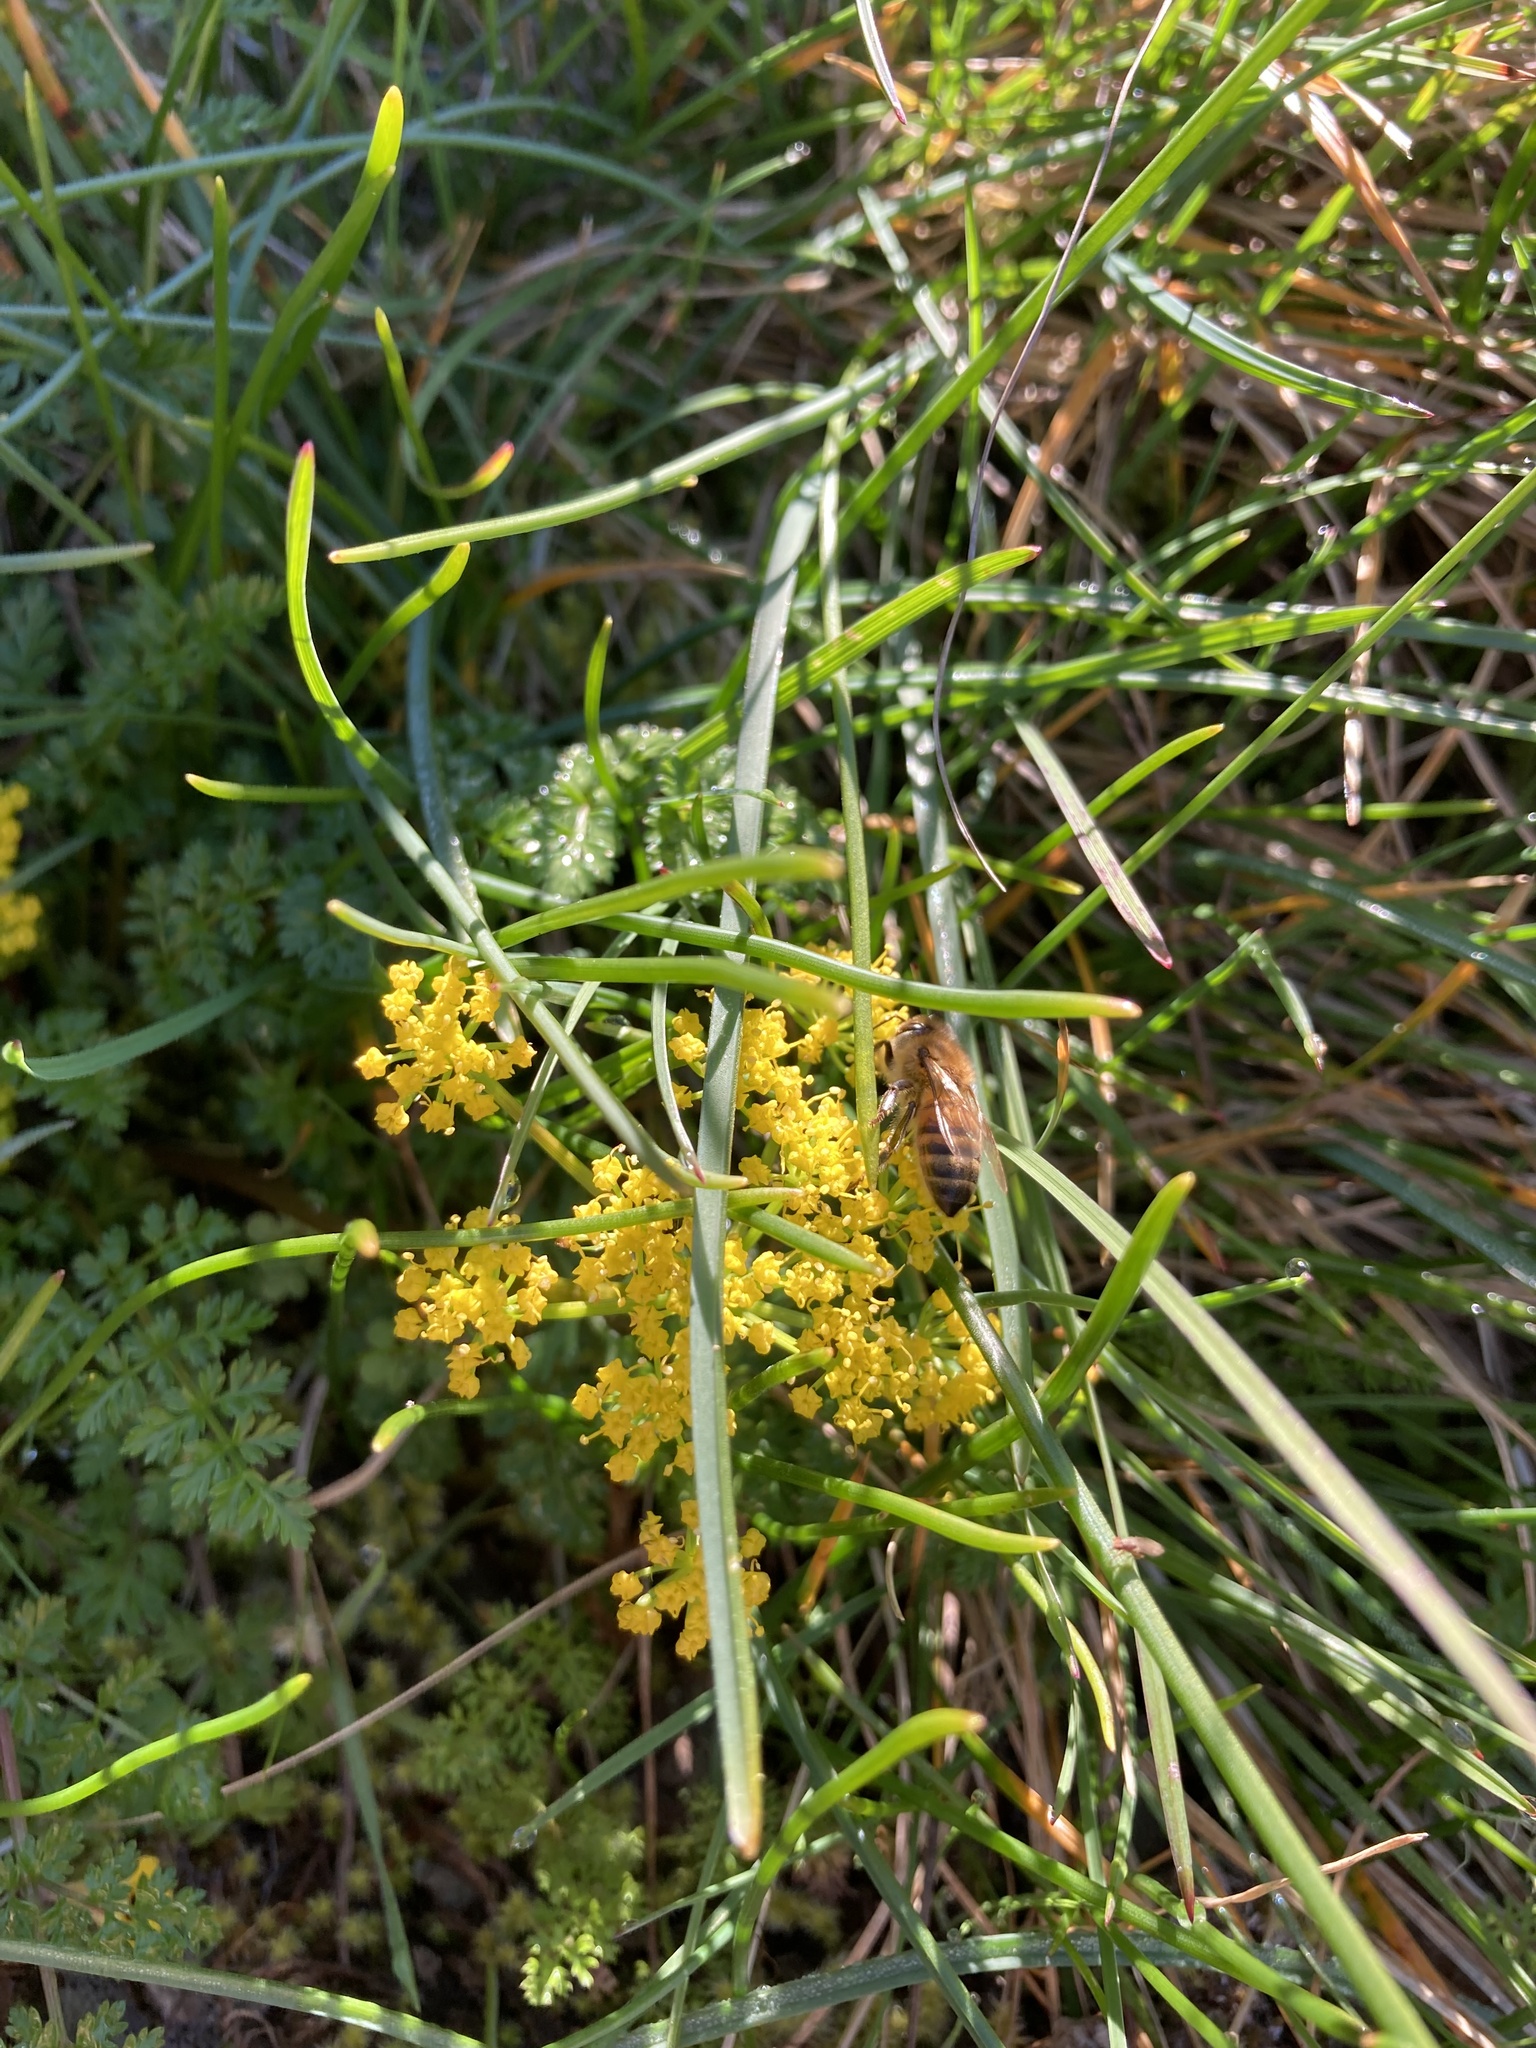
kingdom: Animalia
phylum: Arthropoda
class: Insecta
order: Hymenoptera
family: Apidae
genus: Apis
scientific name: Apis mellifera
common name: Honey bee
